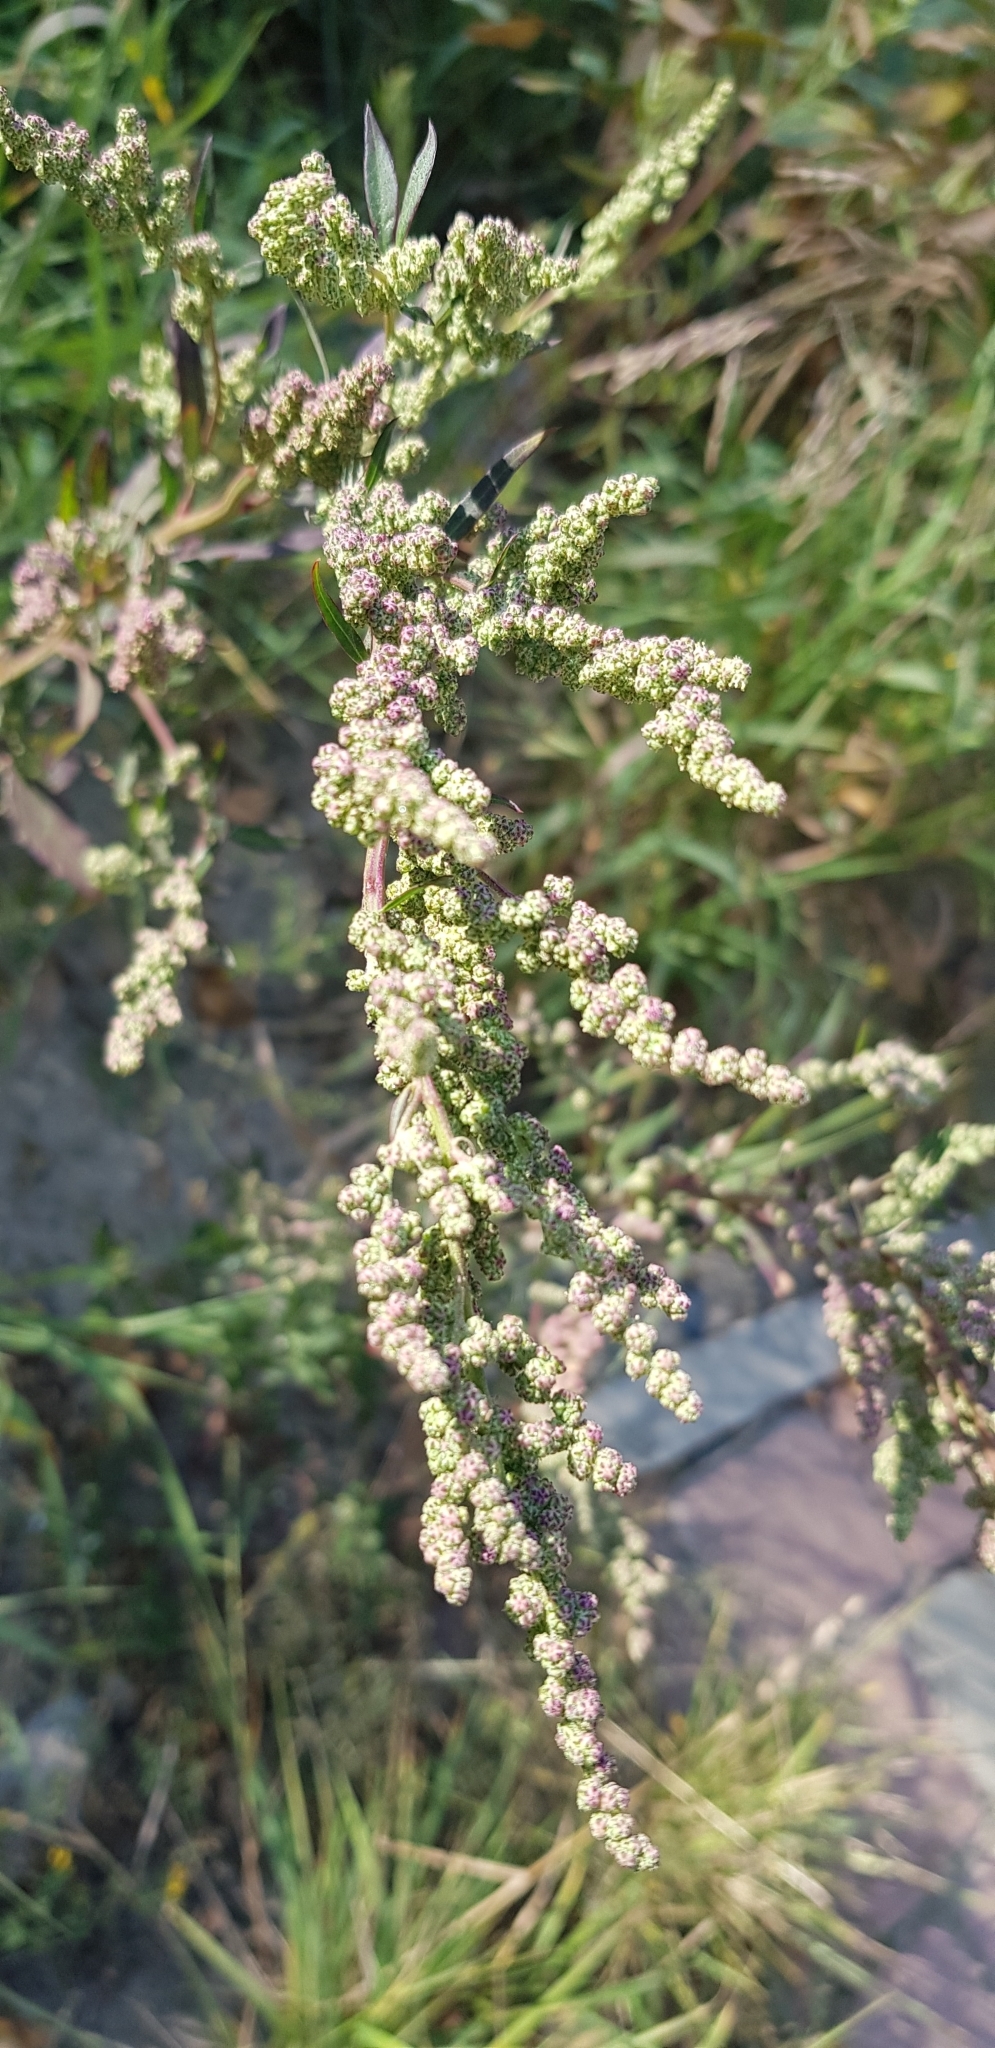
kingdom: Plantae
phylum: Tracheophyta
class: Magnoliopsida
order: Caryophyllales
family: Amaranthaceae
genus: Chenopodium
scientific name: Chenopodium album
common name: Fat-hen
